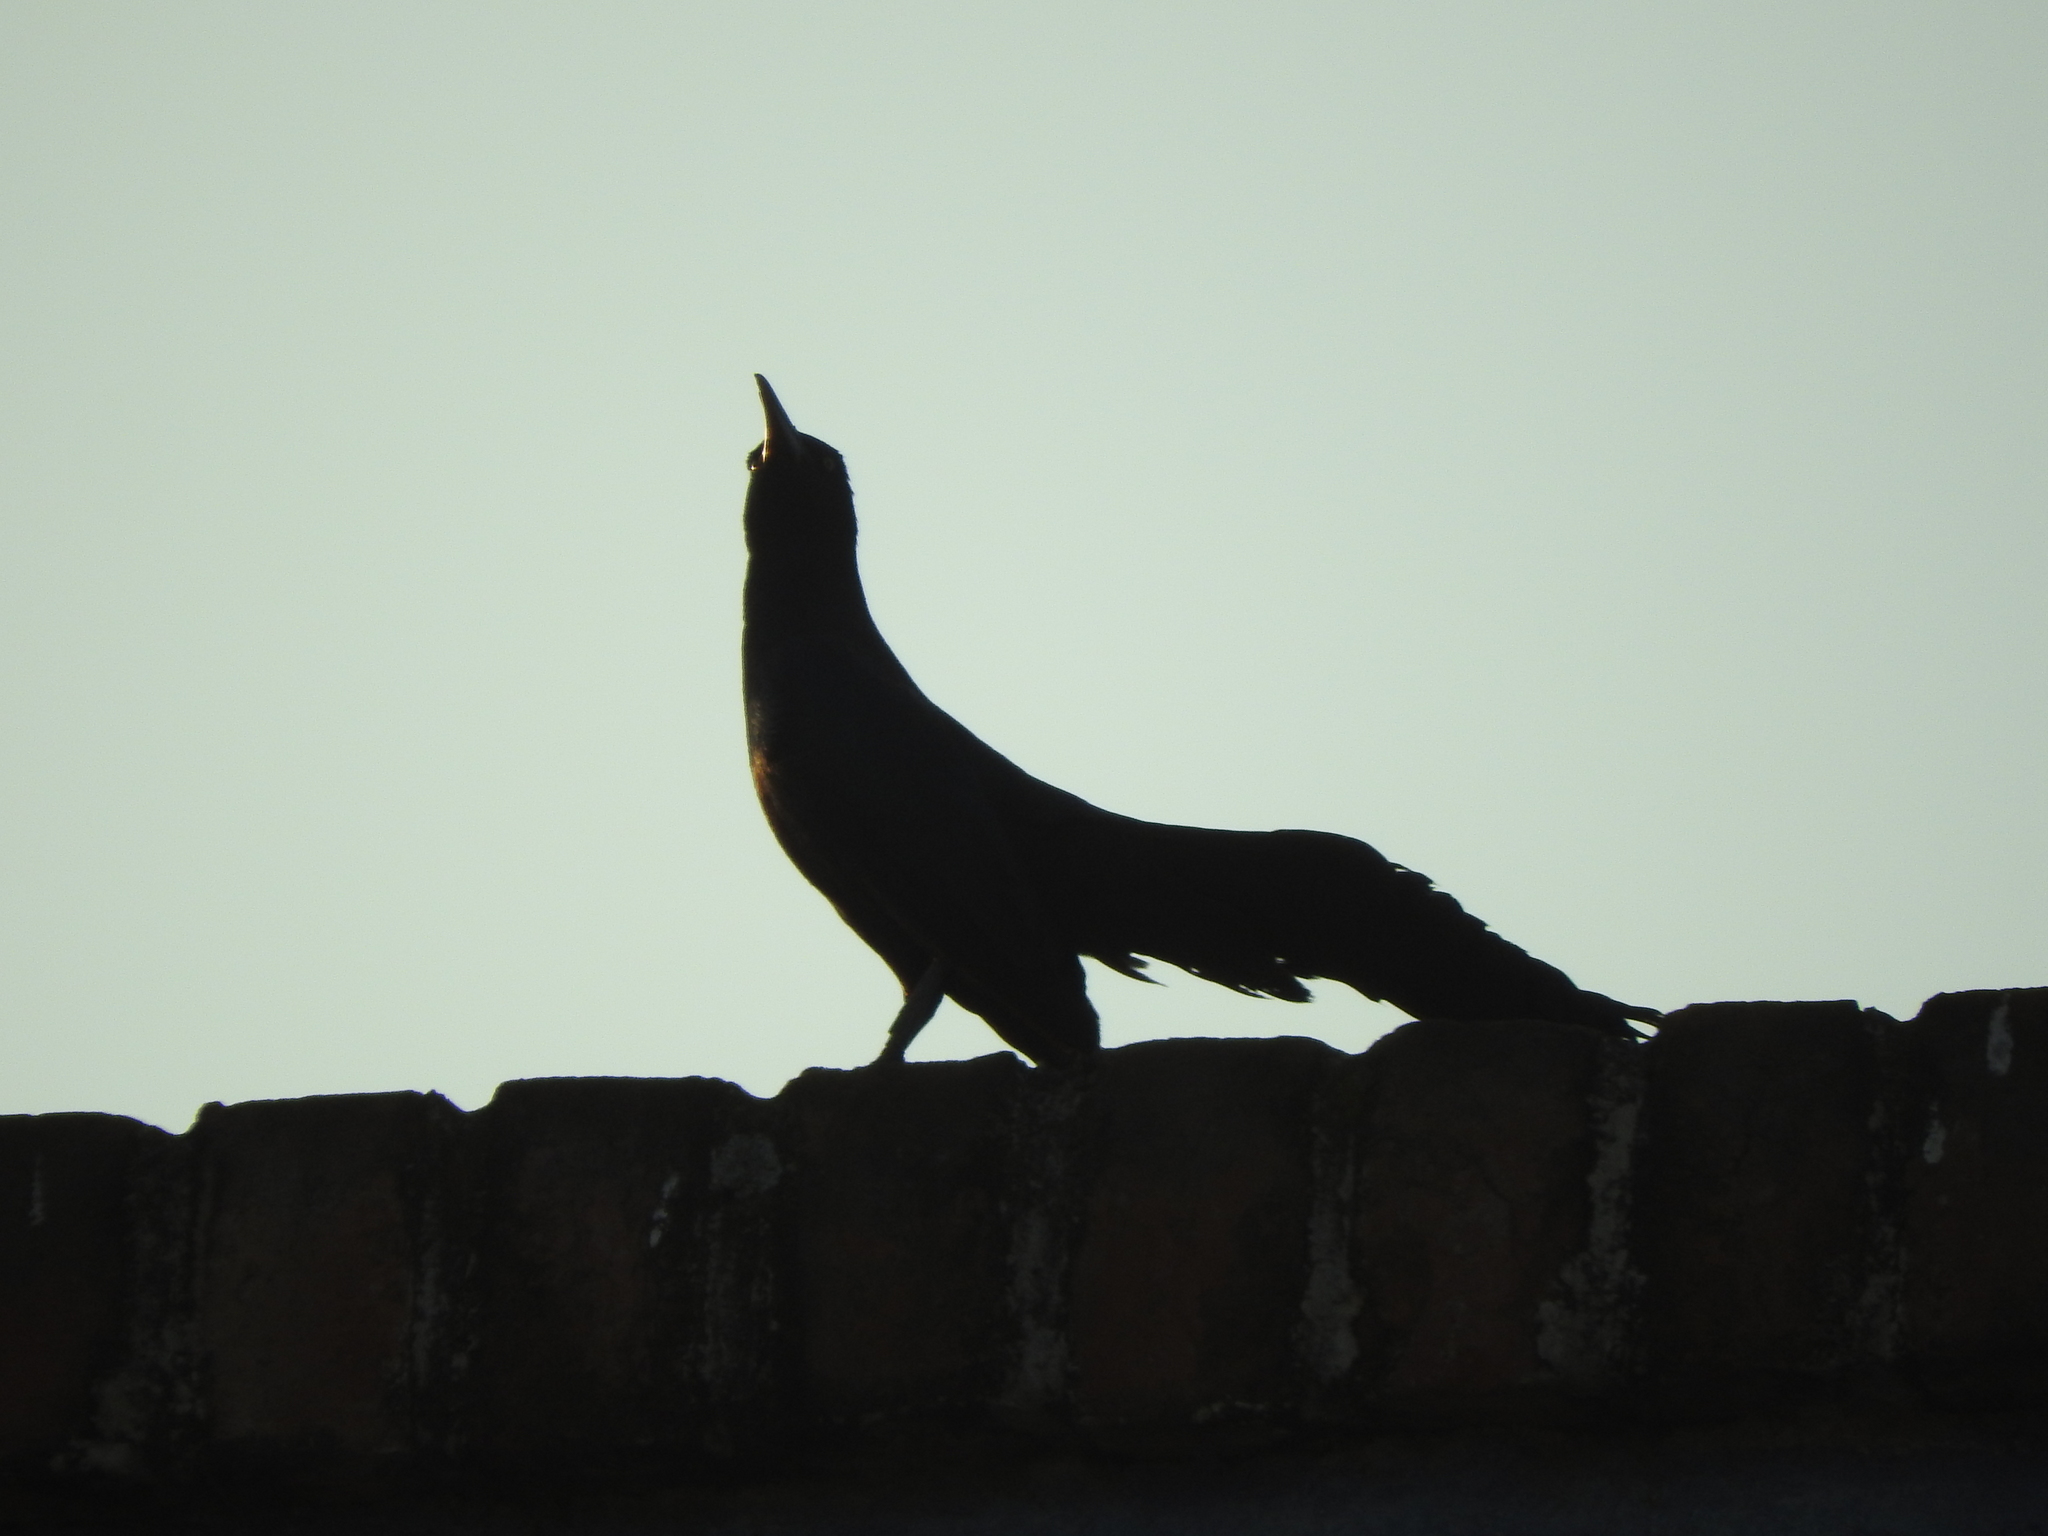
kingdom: Animalia
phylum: Chordata
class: Aves
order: Passeriformes
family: Icteridae
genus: Quiscalus
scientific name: Quiscalus mexicanus
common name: Great-tailed grackle
